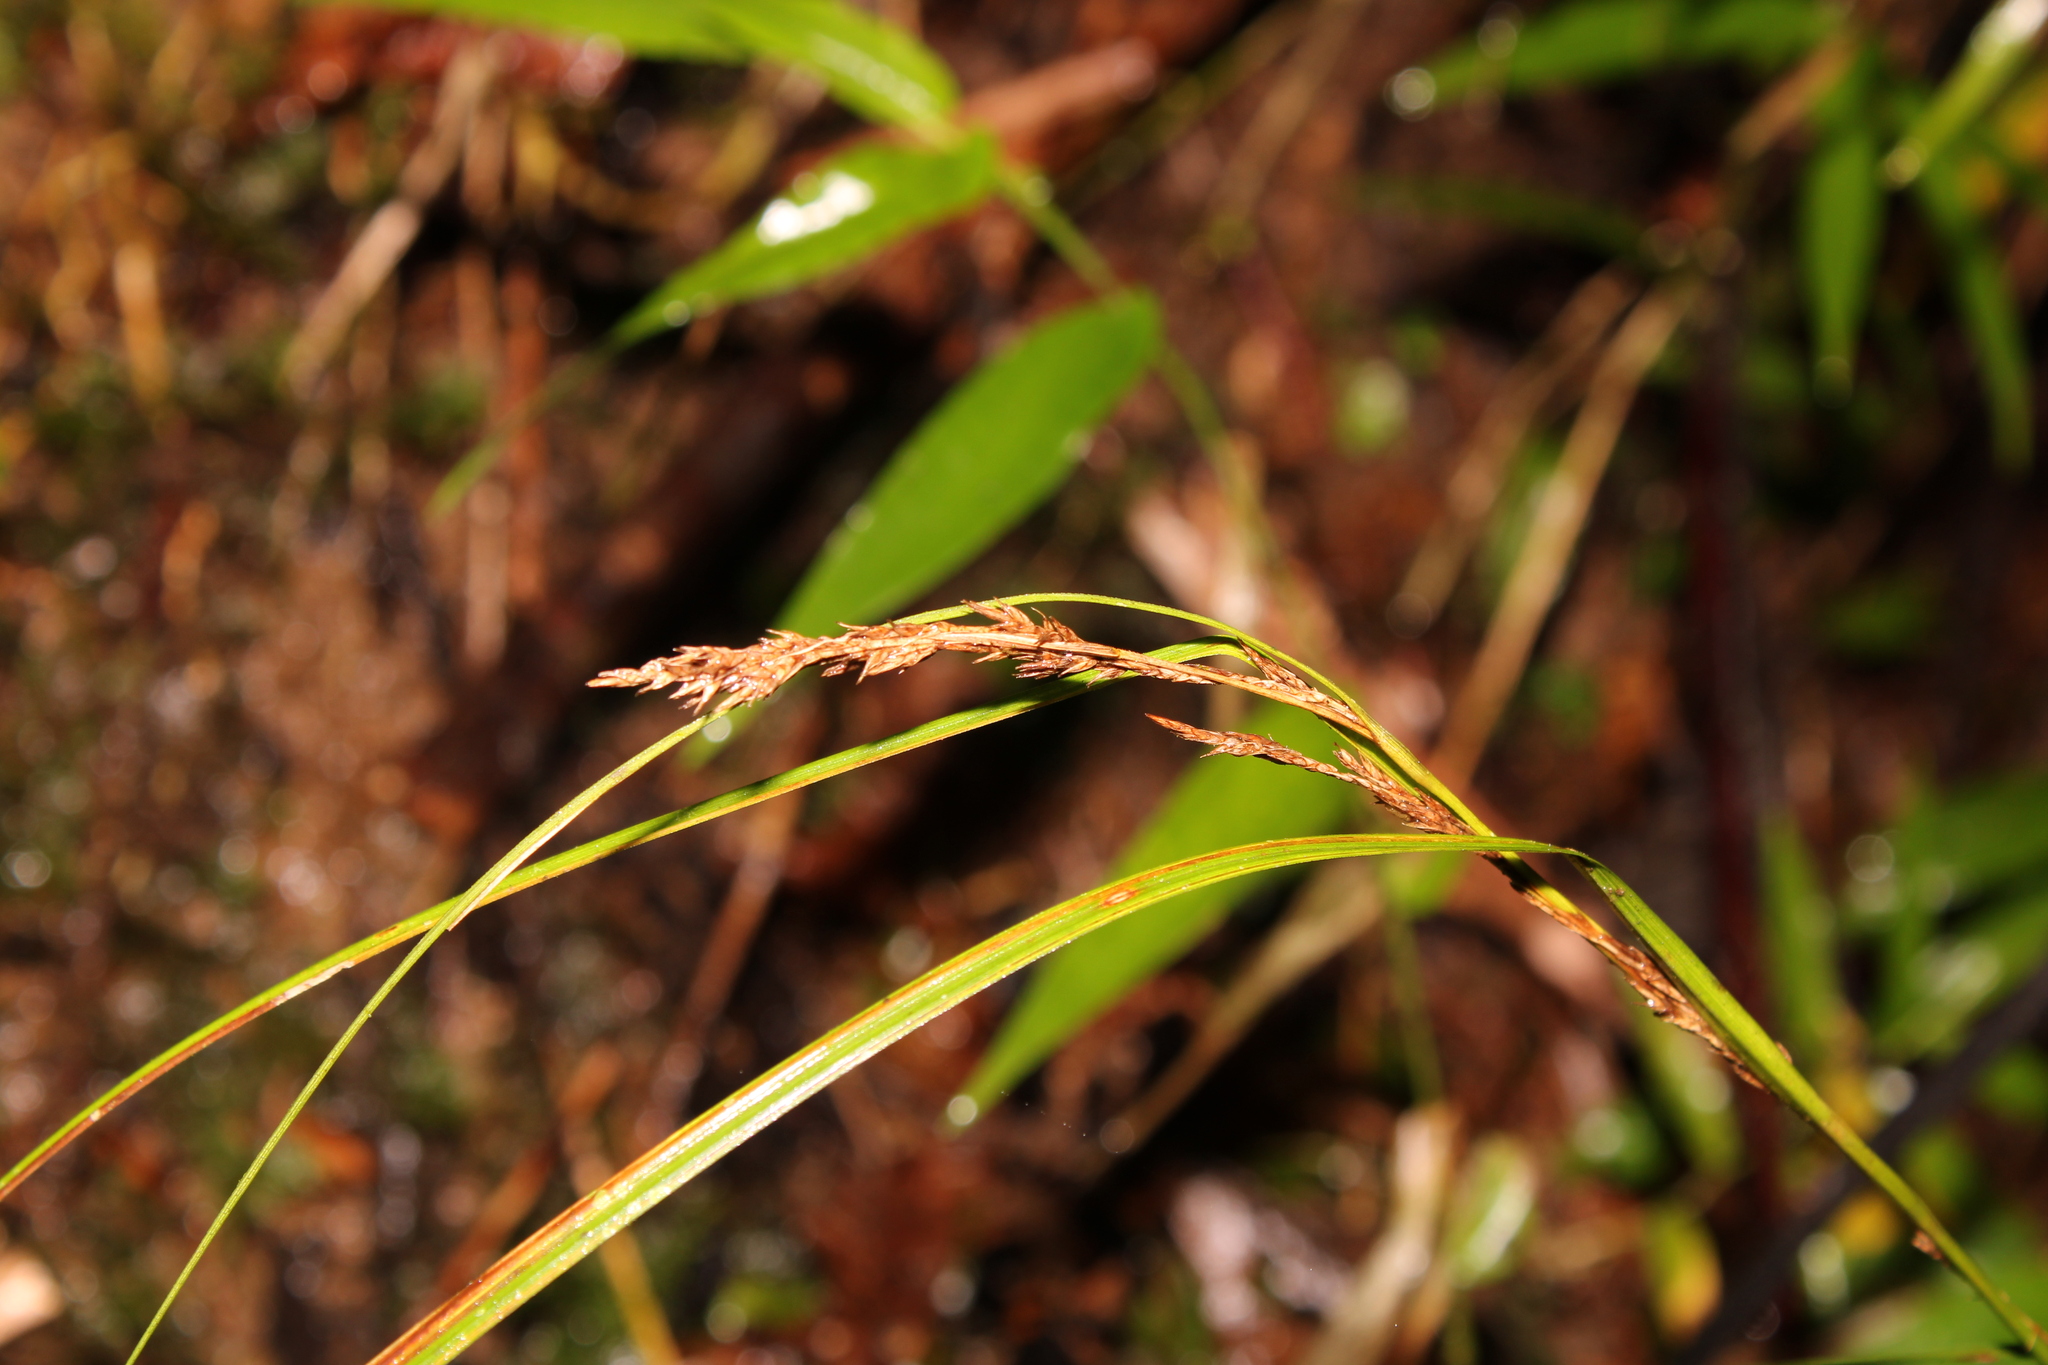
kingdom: Plantae
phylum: Tracheophyta
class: Liliopsida
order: Poales
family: Cyperaceae
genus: Carex
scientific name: Carex polystachya
